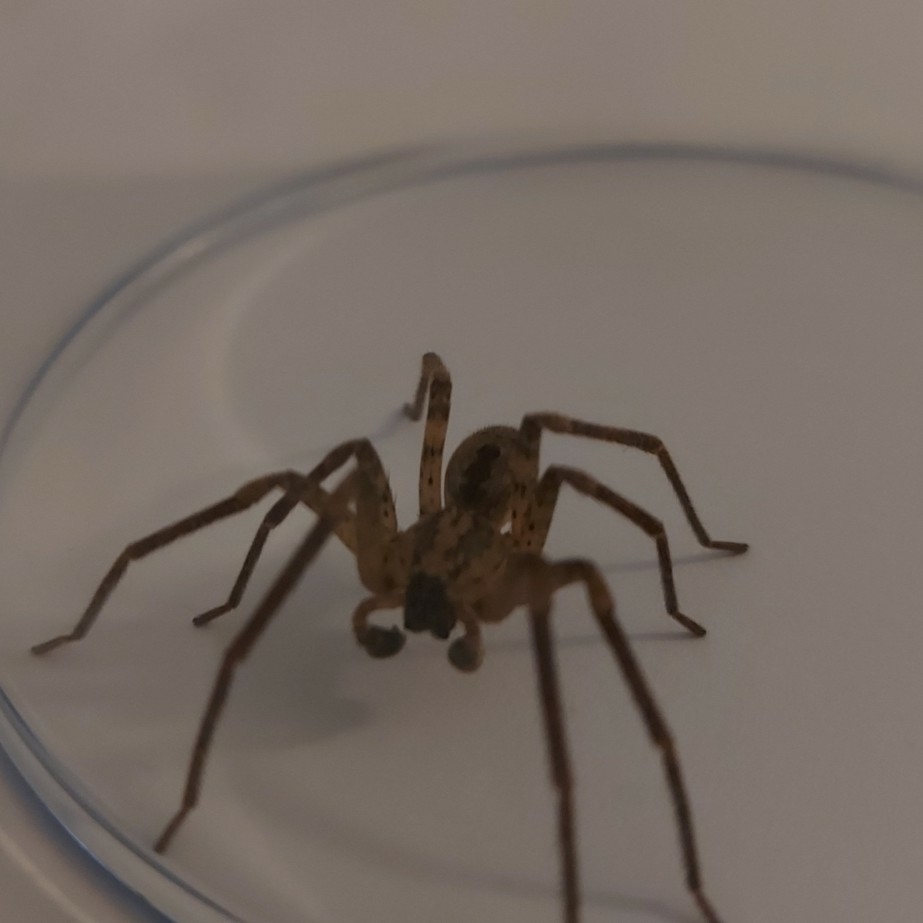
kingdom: Animalia
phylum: Arthropoda
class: Arachnida
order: Araneae
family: Zoropsidae
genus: Zoropsis
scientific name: Zoropsis spinimana
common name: Zoropsid spider
